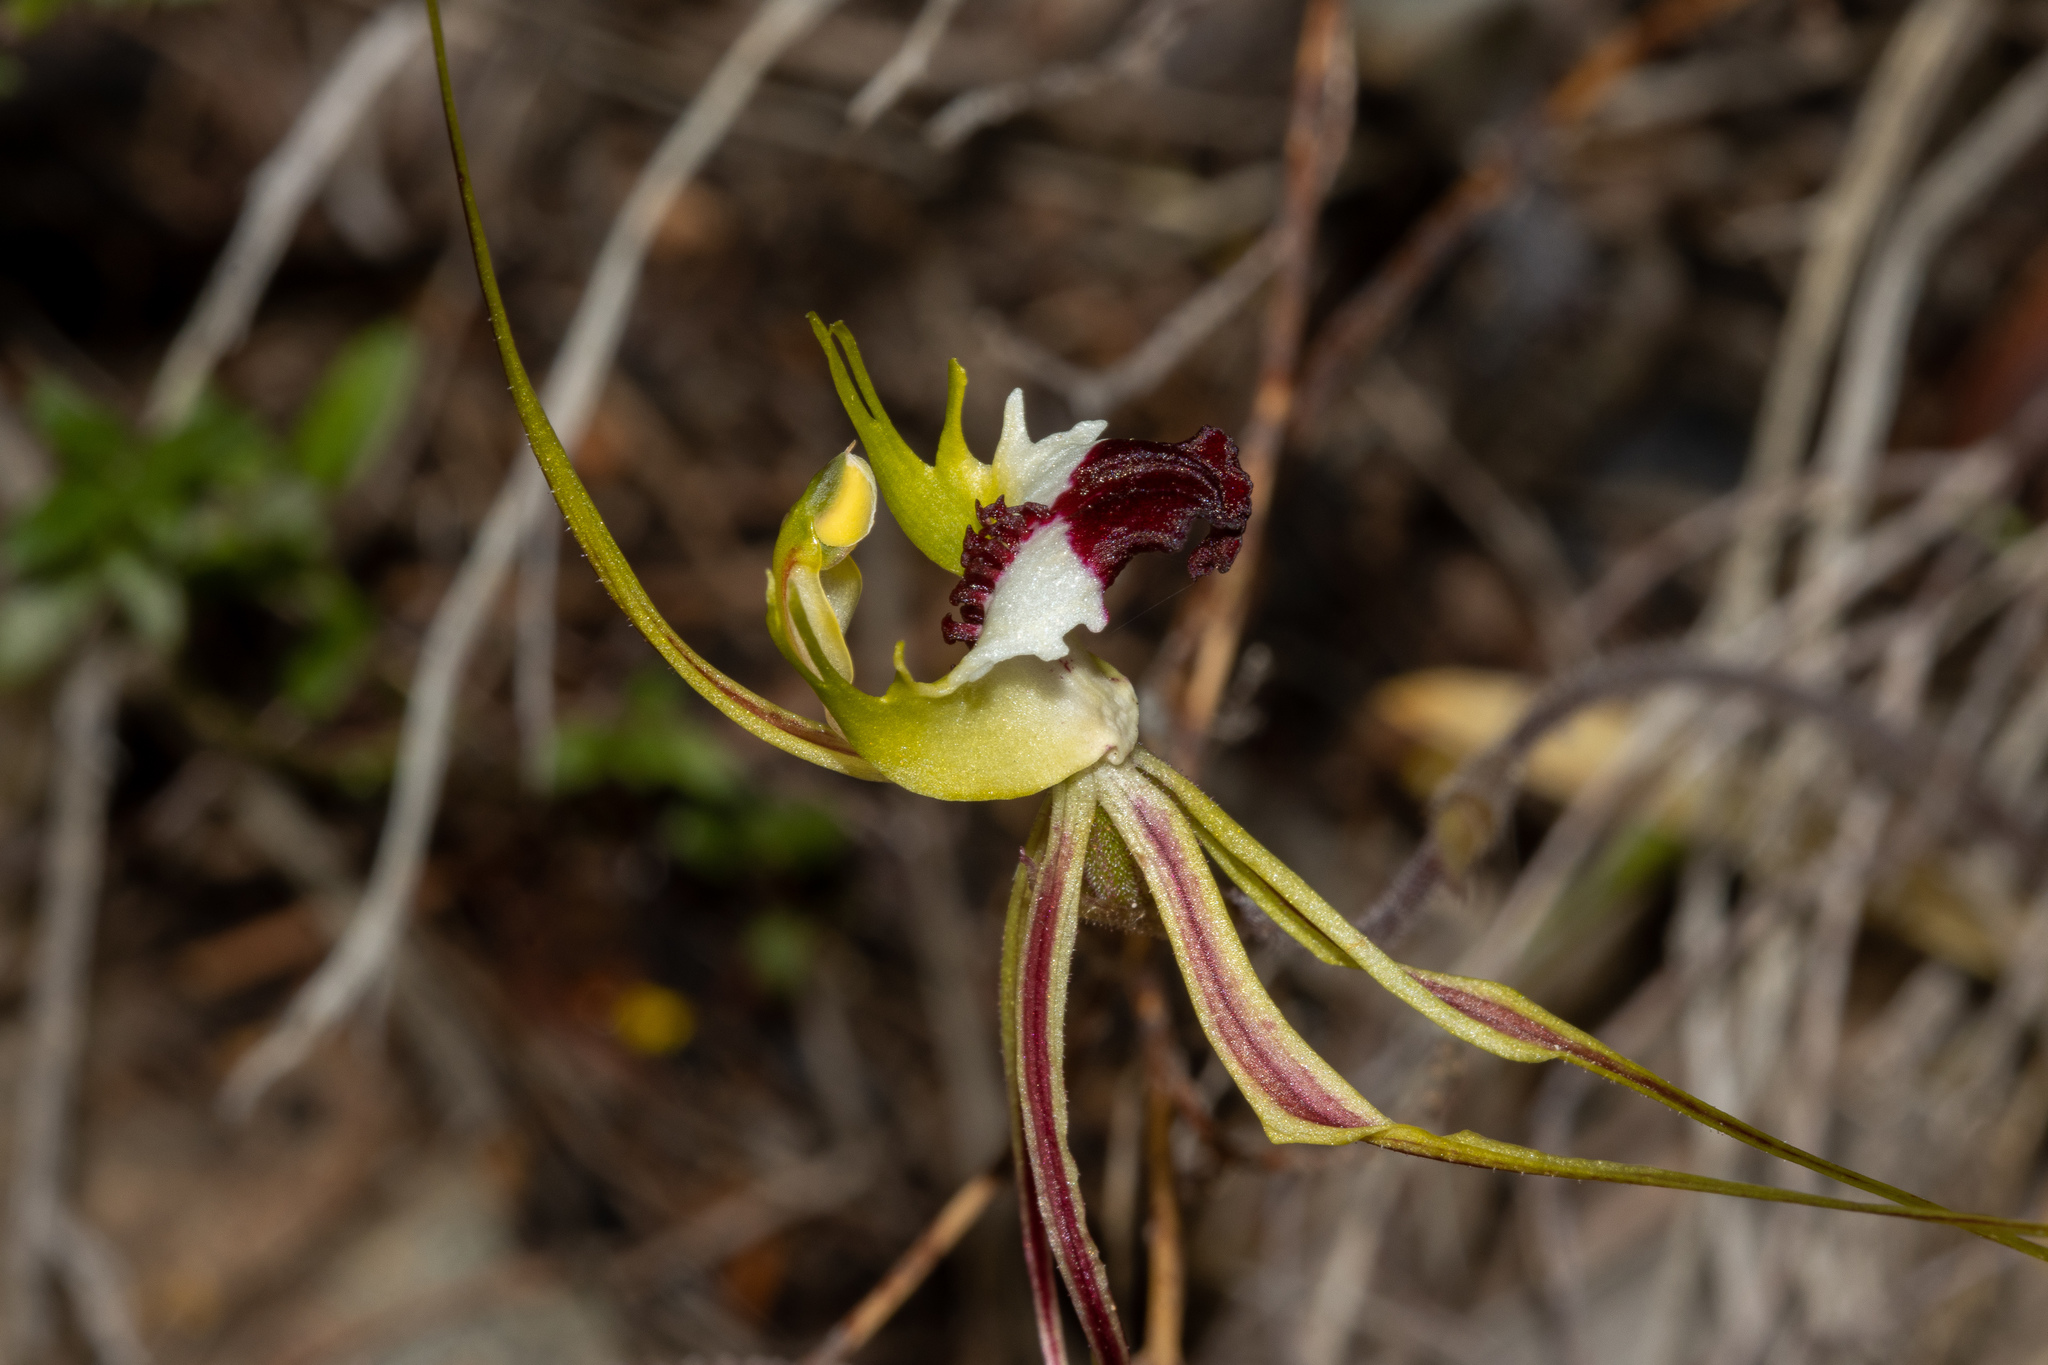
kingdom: Plantae
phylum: Tracheophyta
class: Liliopsida
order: Asparagales
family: Orchidaceae
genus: Caladenia
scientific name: Caladenia tentaculata
